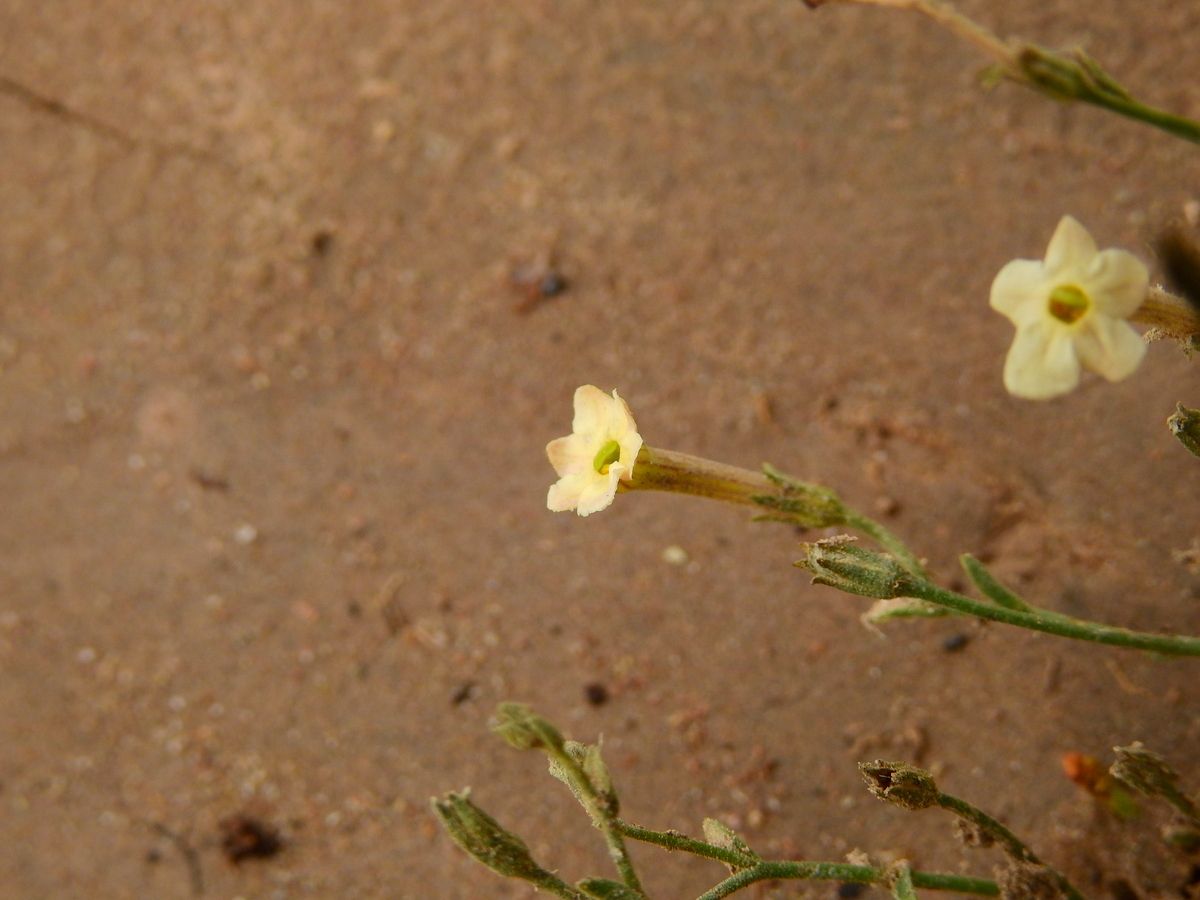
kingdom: Plantae
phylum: Tracheophyta
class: Magnoliopsida
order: Solanales
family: Solanaceae
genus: Leptoglossis
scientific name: Leptoglossis linifolia
